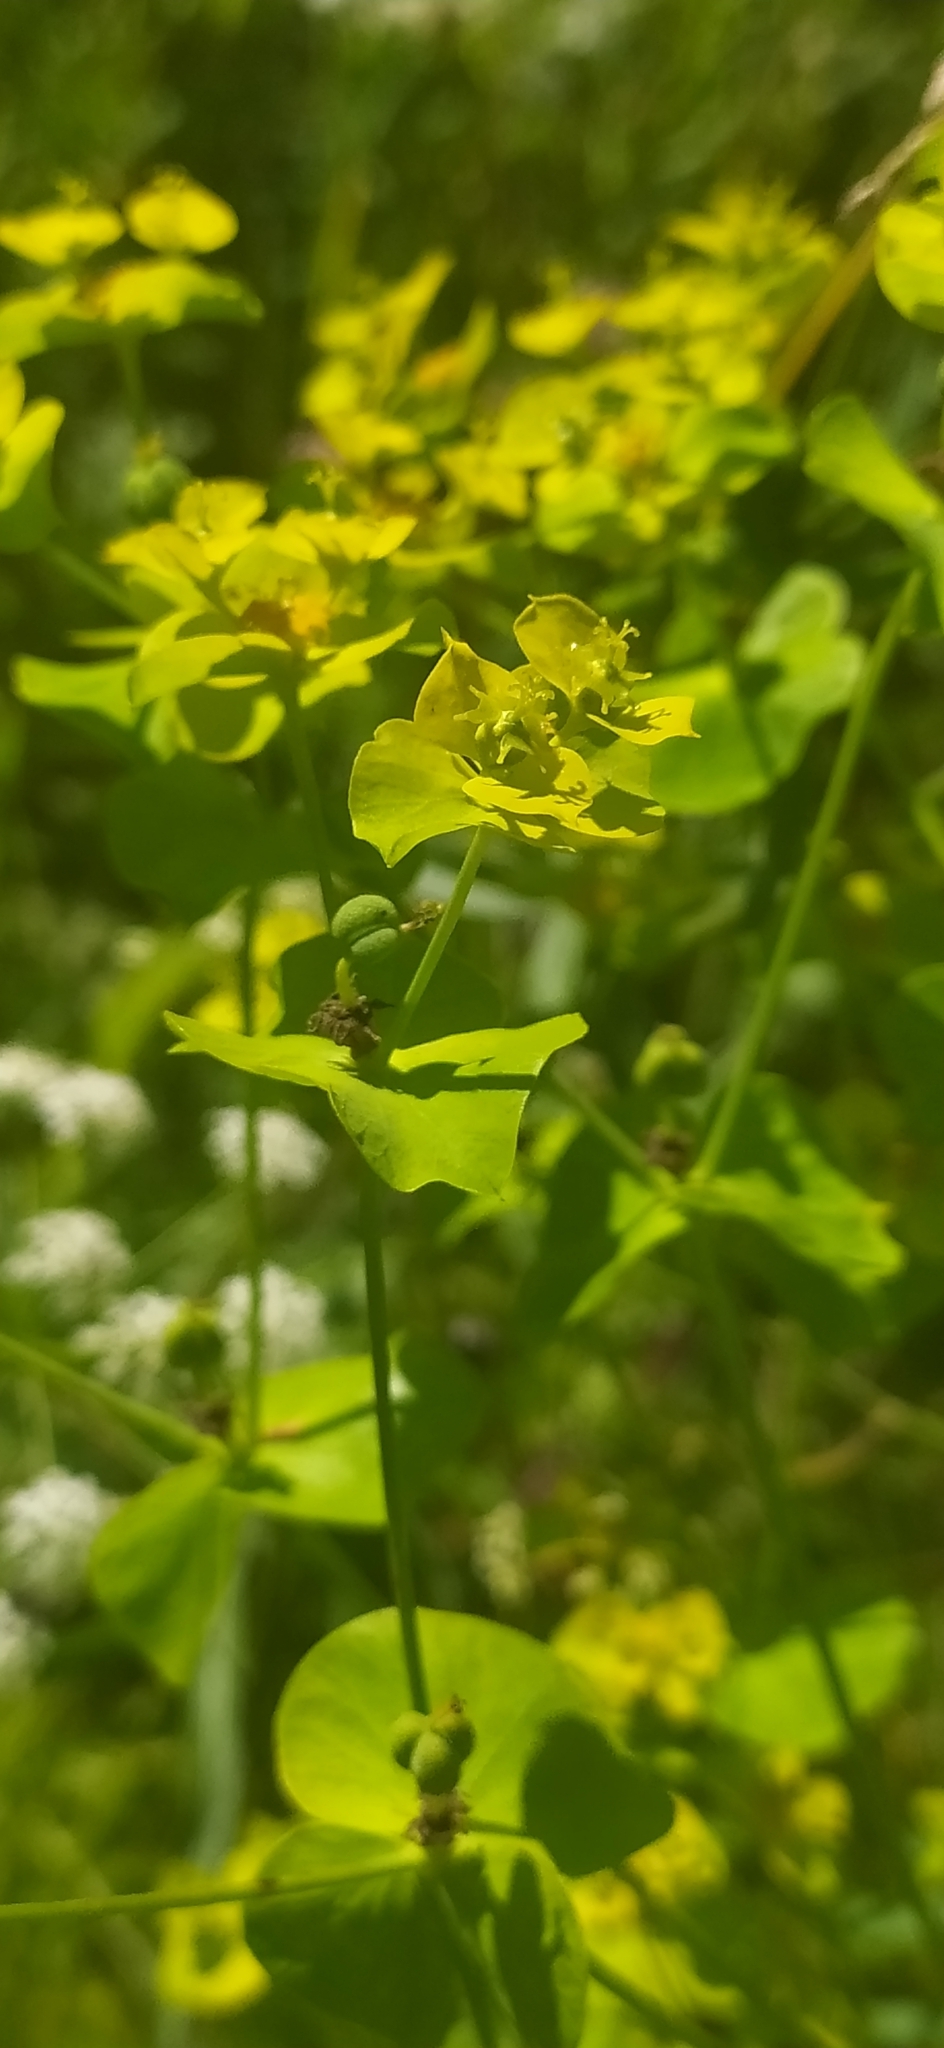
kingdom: Plantae
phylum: Tracheophyta
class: Magnoliopsida
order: Malpighiales
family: Euphorbiaceae
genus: Euphorbia
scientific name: Euphorbia virgata
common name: Leafy spurge
